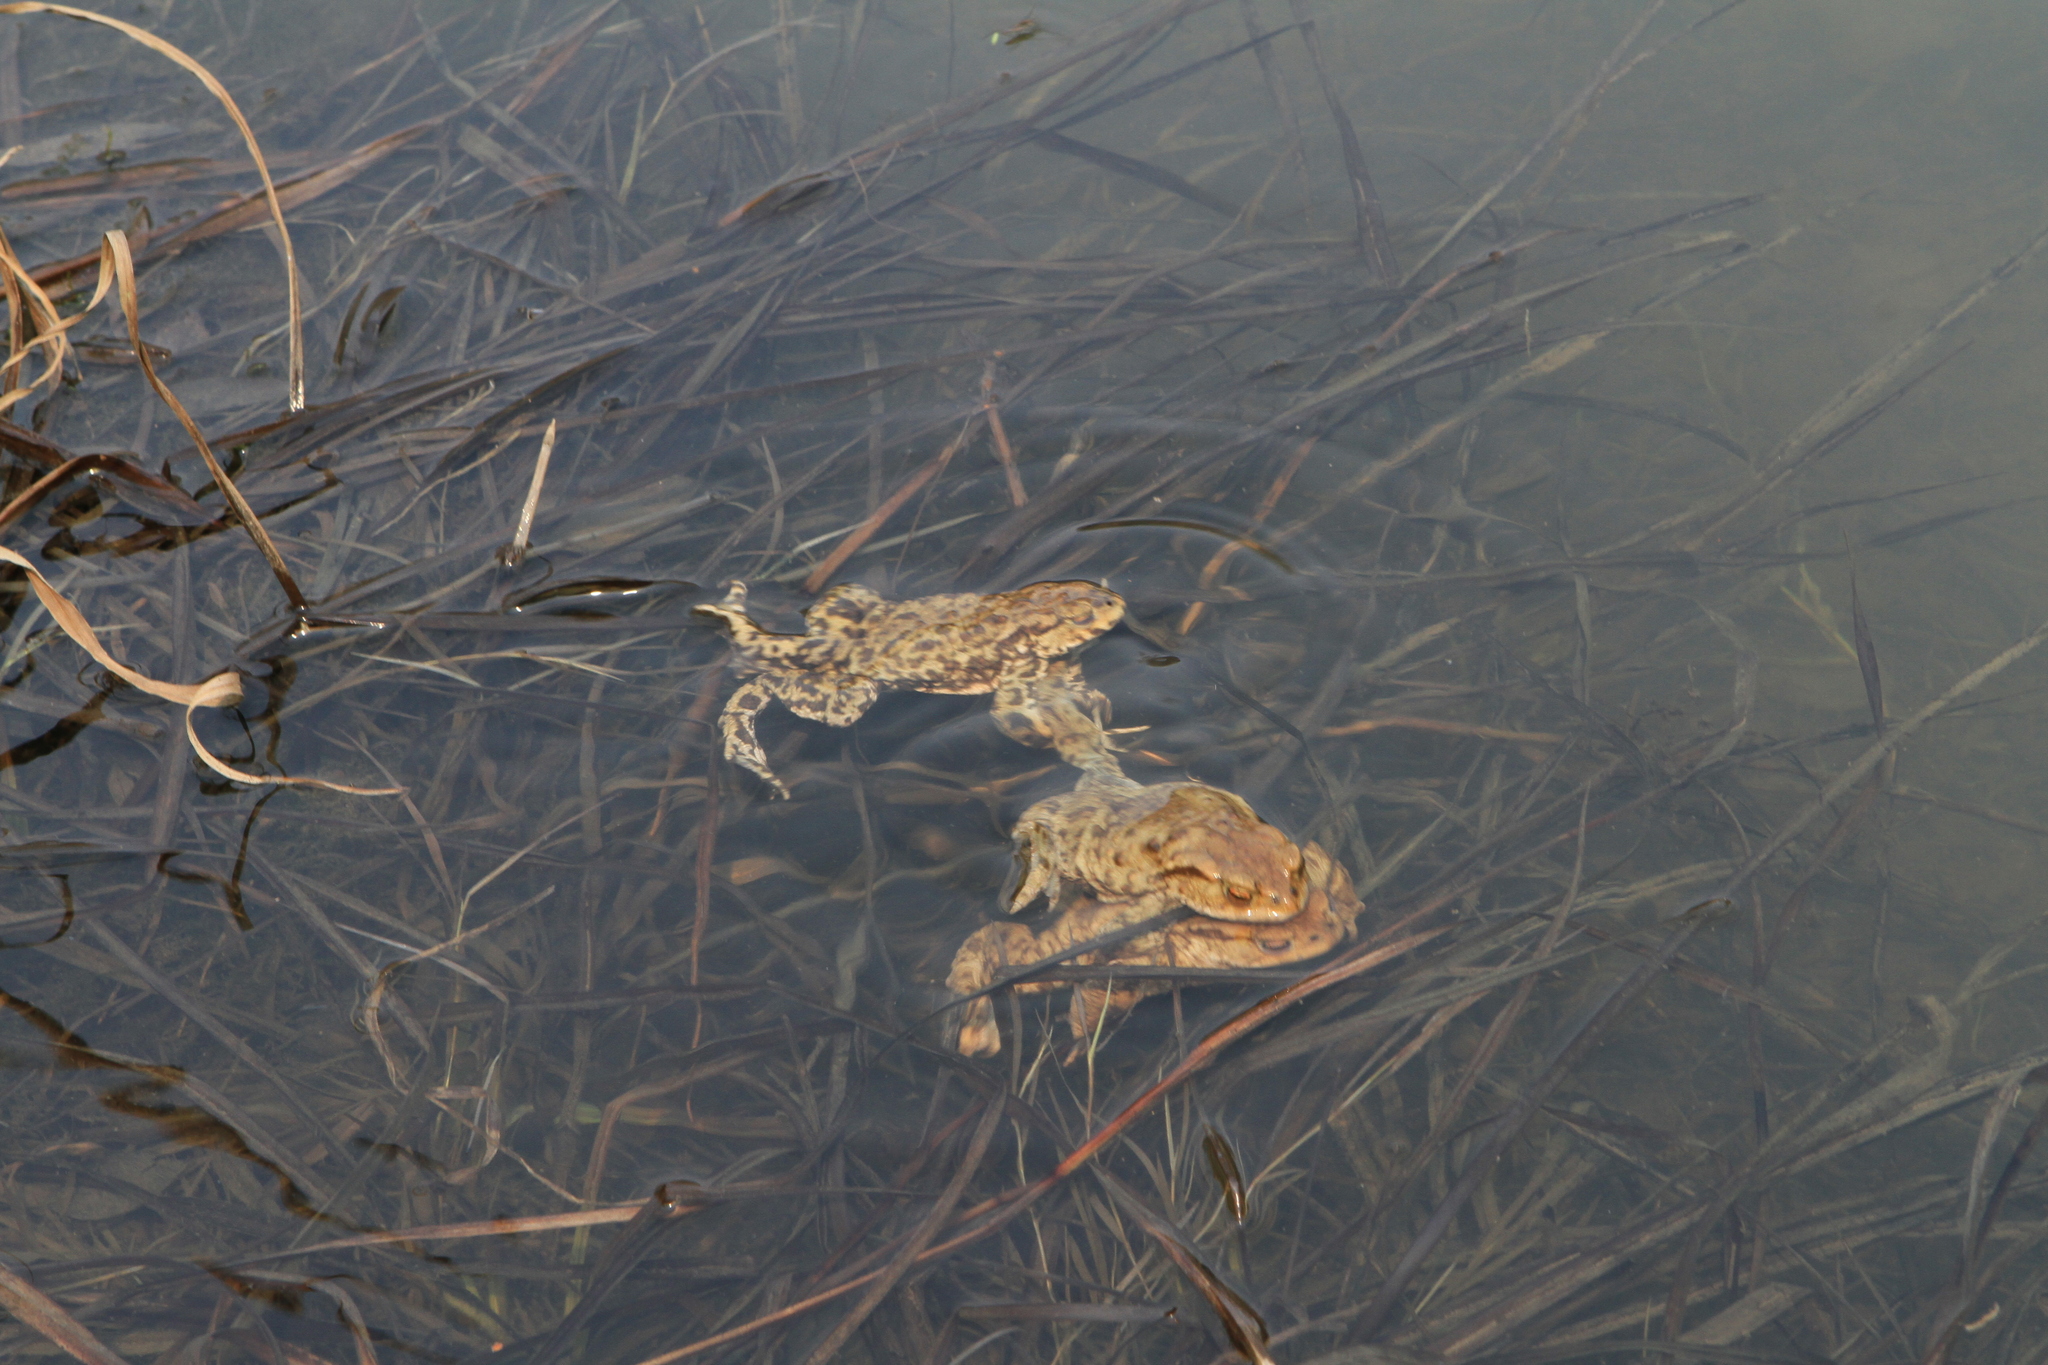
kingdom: Animalia
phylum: Chordata
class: Amphibia
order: Anura
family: Bufonidae
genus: Bufo
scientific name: Bufo bufo
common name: Common toad
